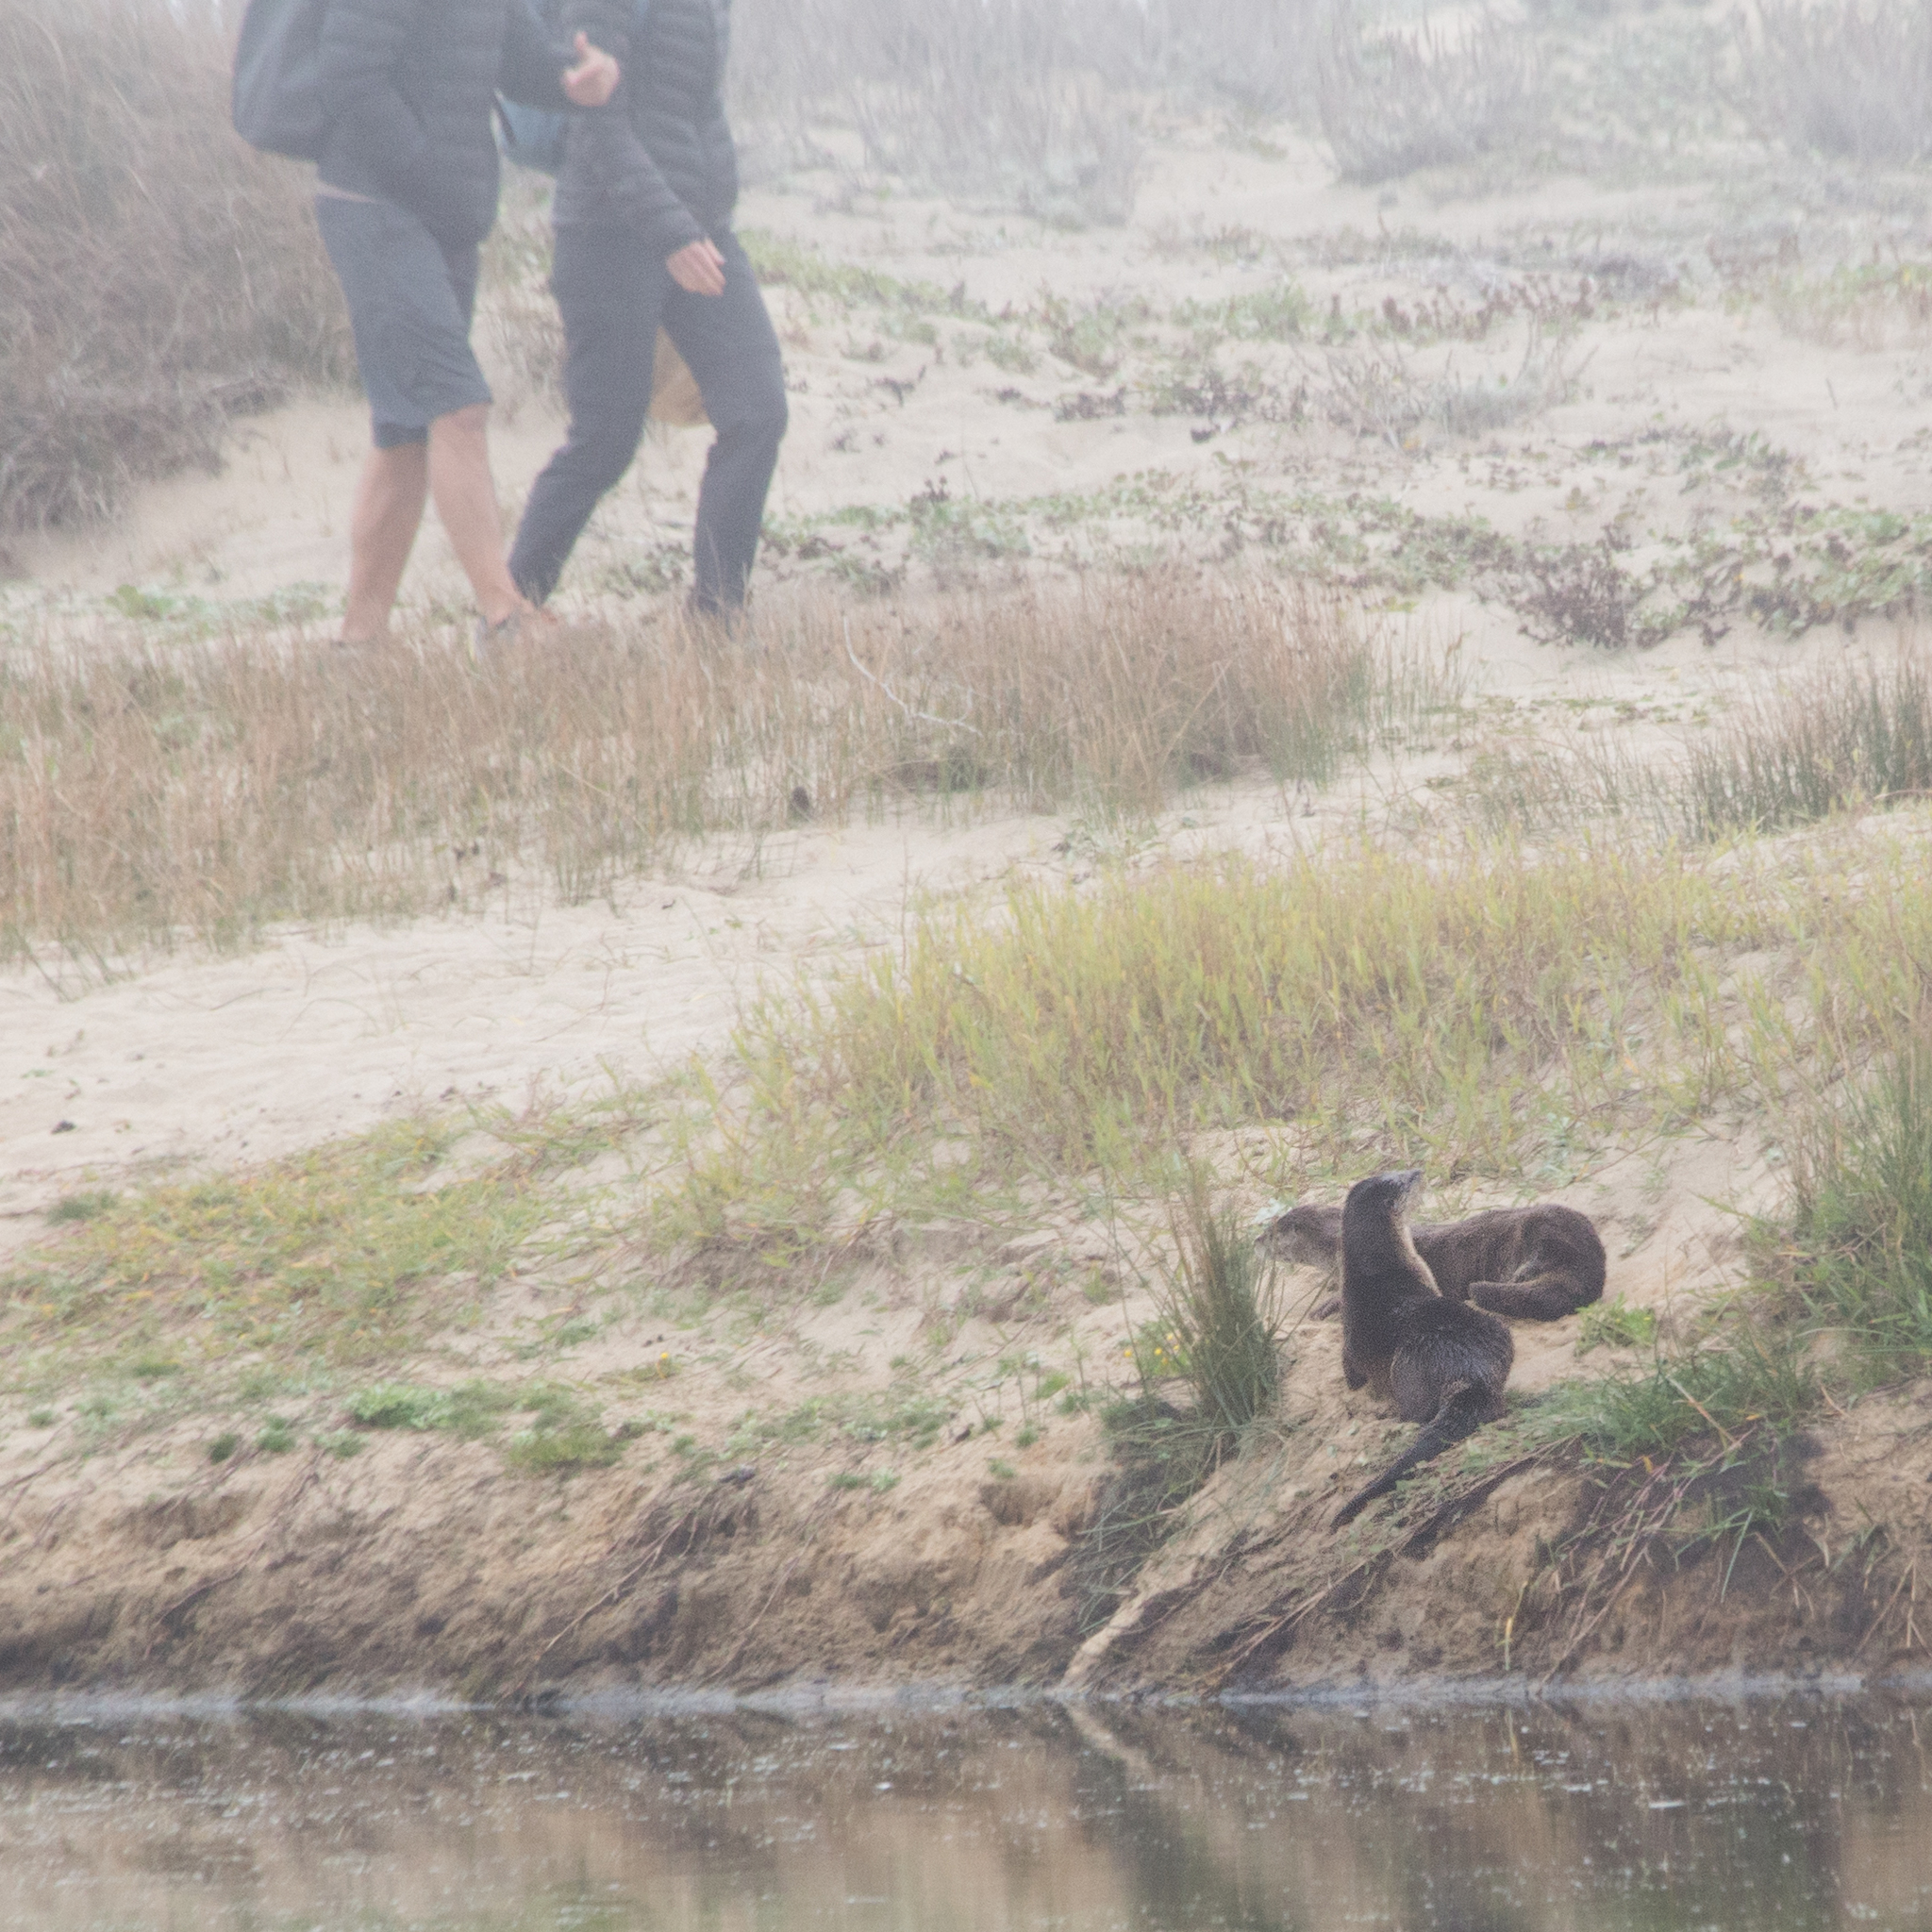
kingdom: Animalia
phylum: Chordata
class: Mammalia
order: Carnivora
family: Mustelidae
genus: Lontra
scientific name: Lontra canadensis
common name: North american river otter
